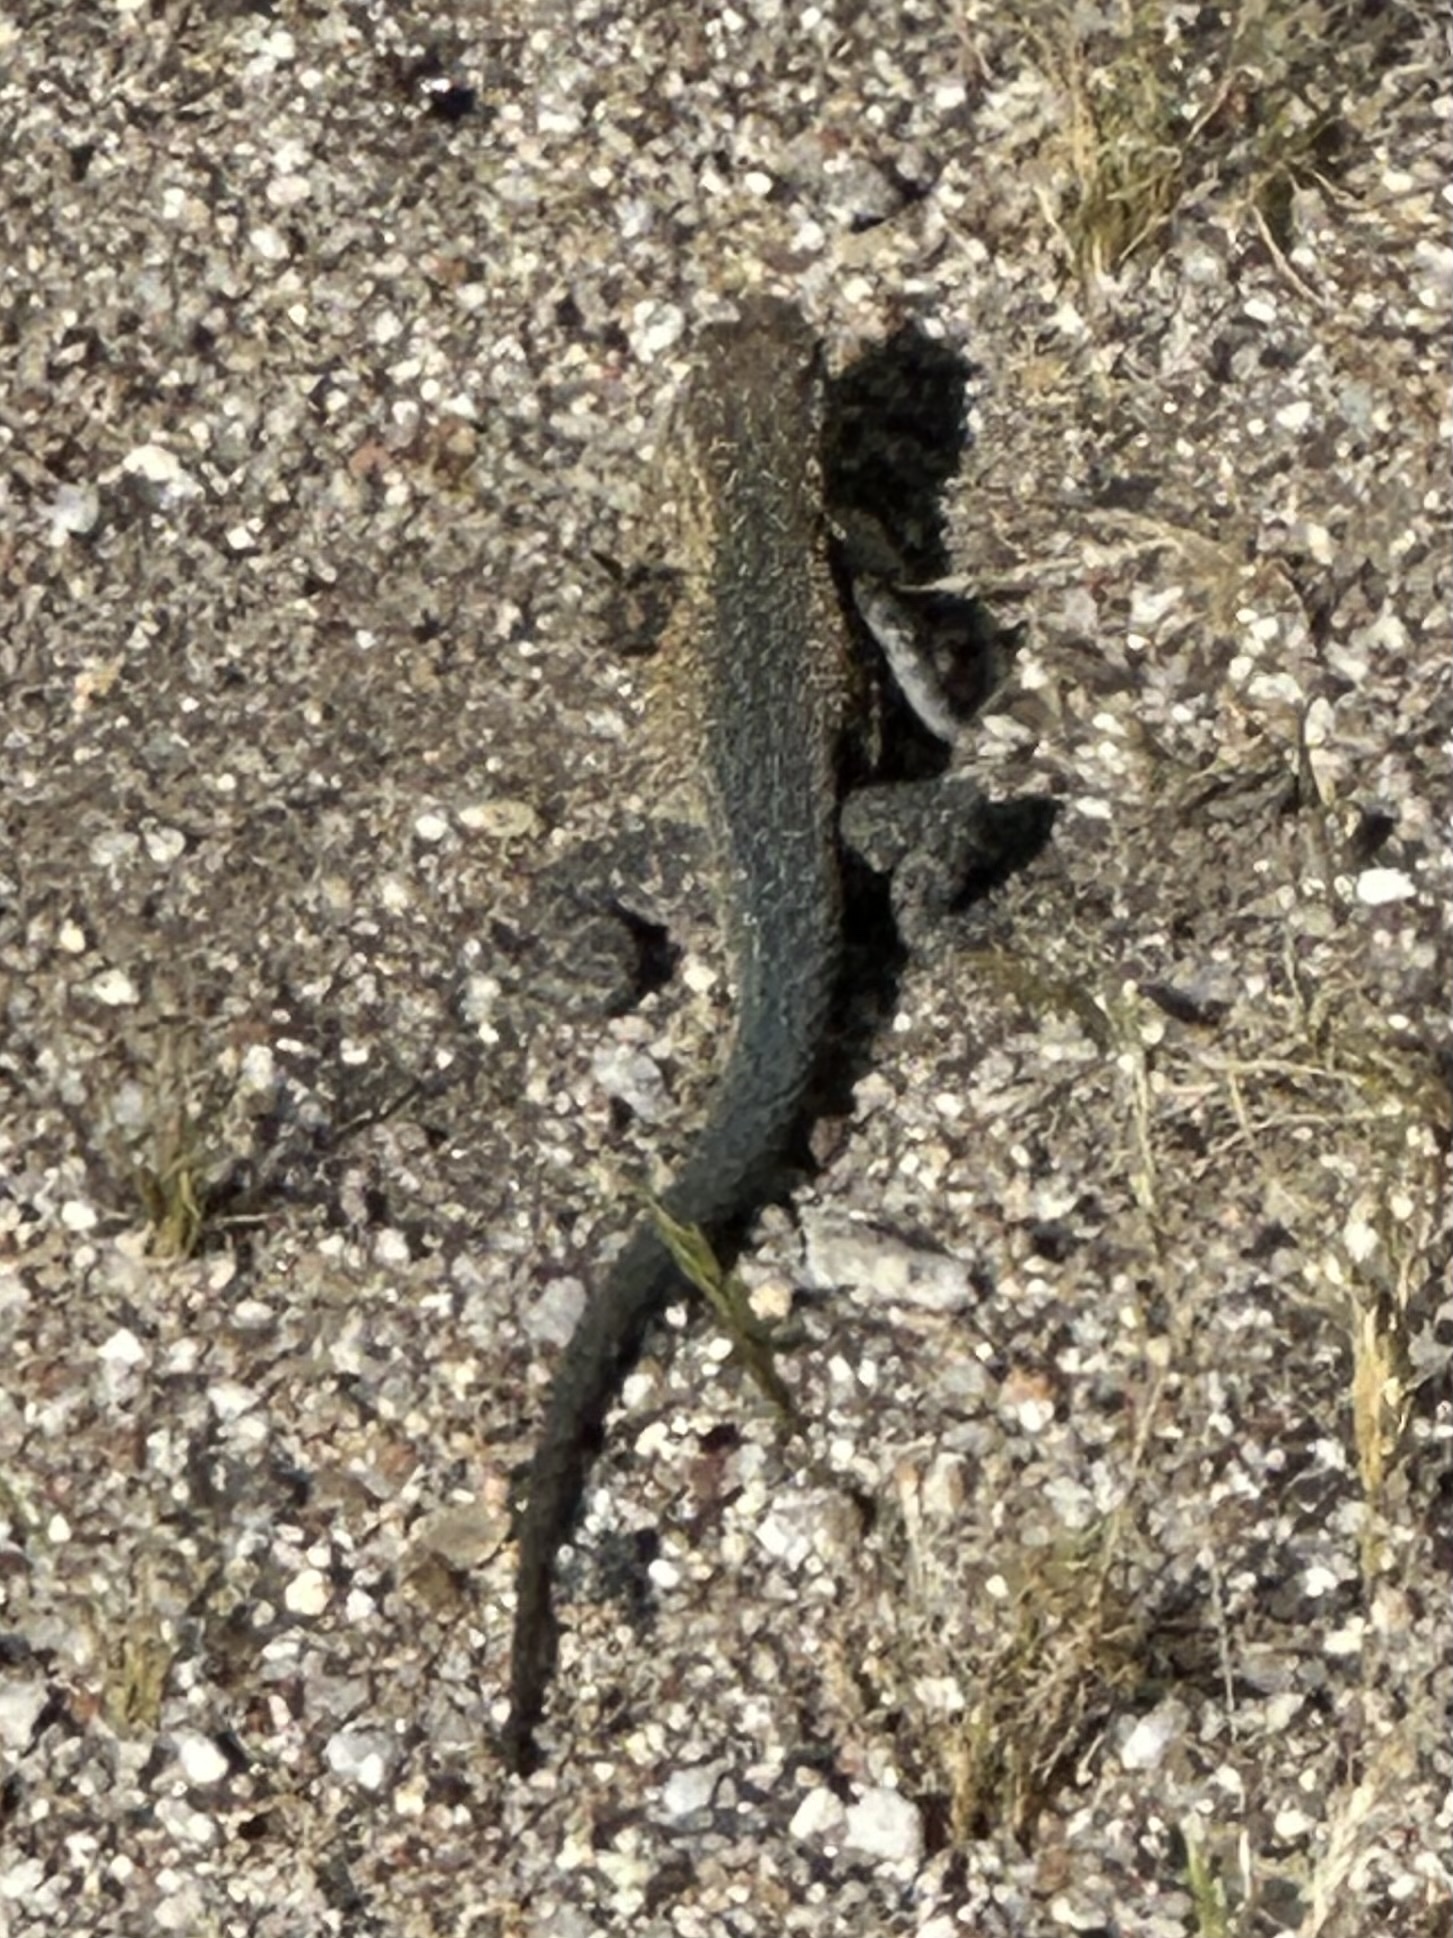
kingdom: Animalia
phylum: Chordata
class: Squamata
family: Phrynosomatidae
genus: Uta
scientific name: Uta stansburiana
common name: Side-blotched lizard
